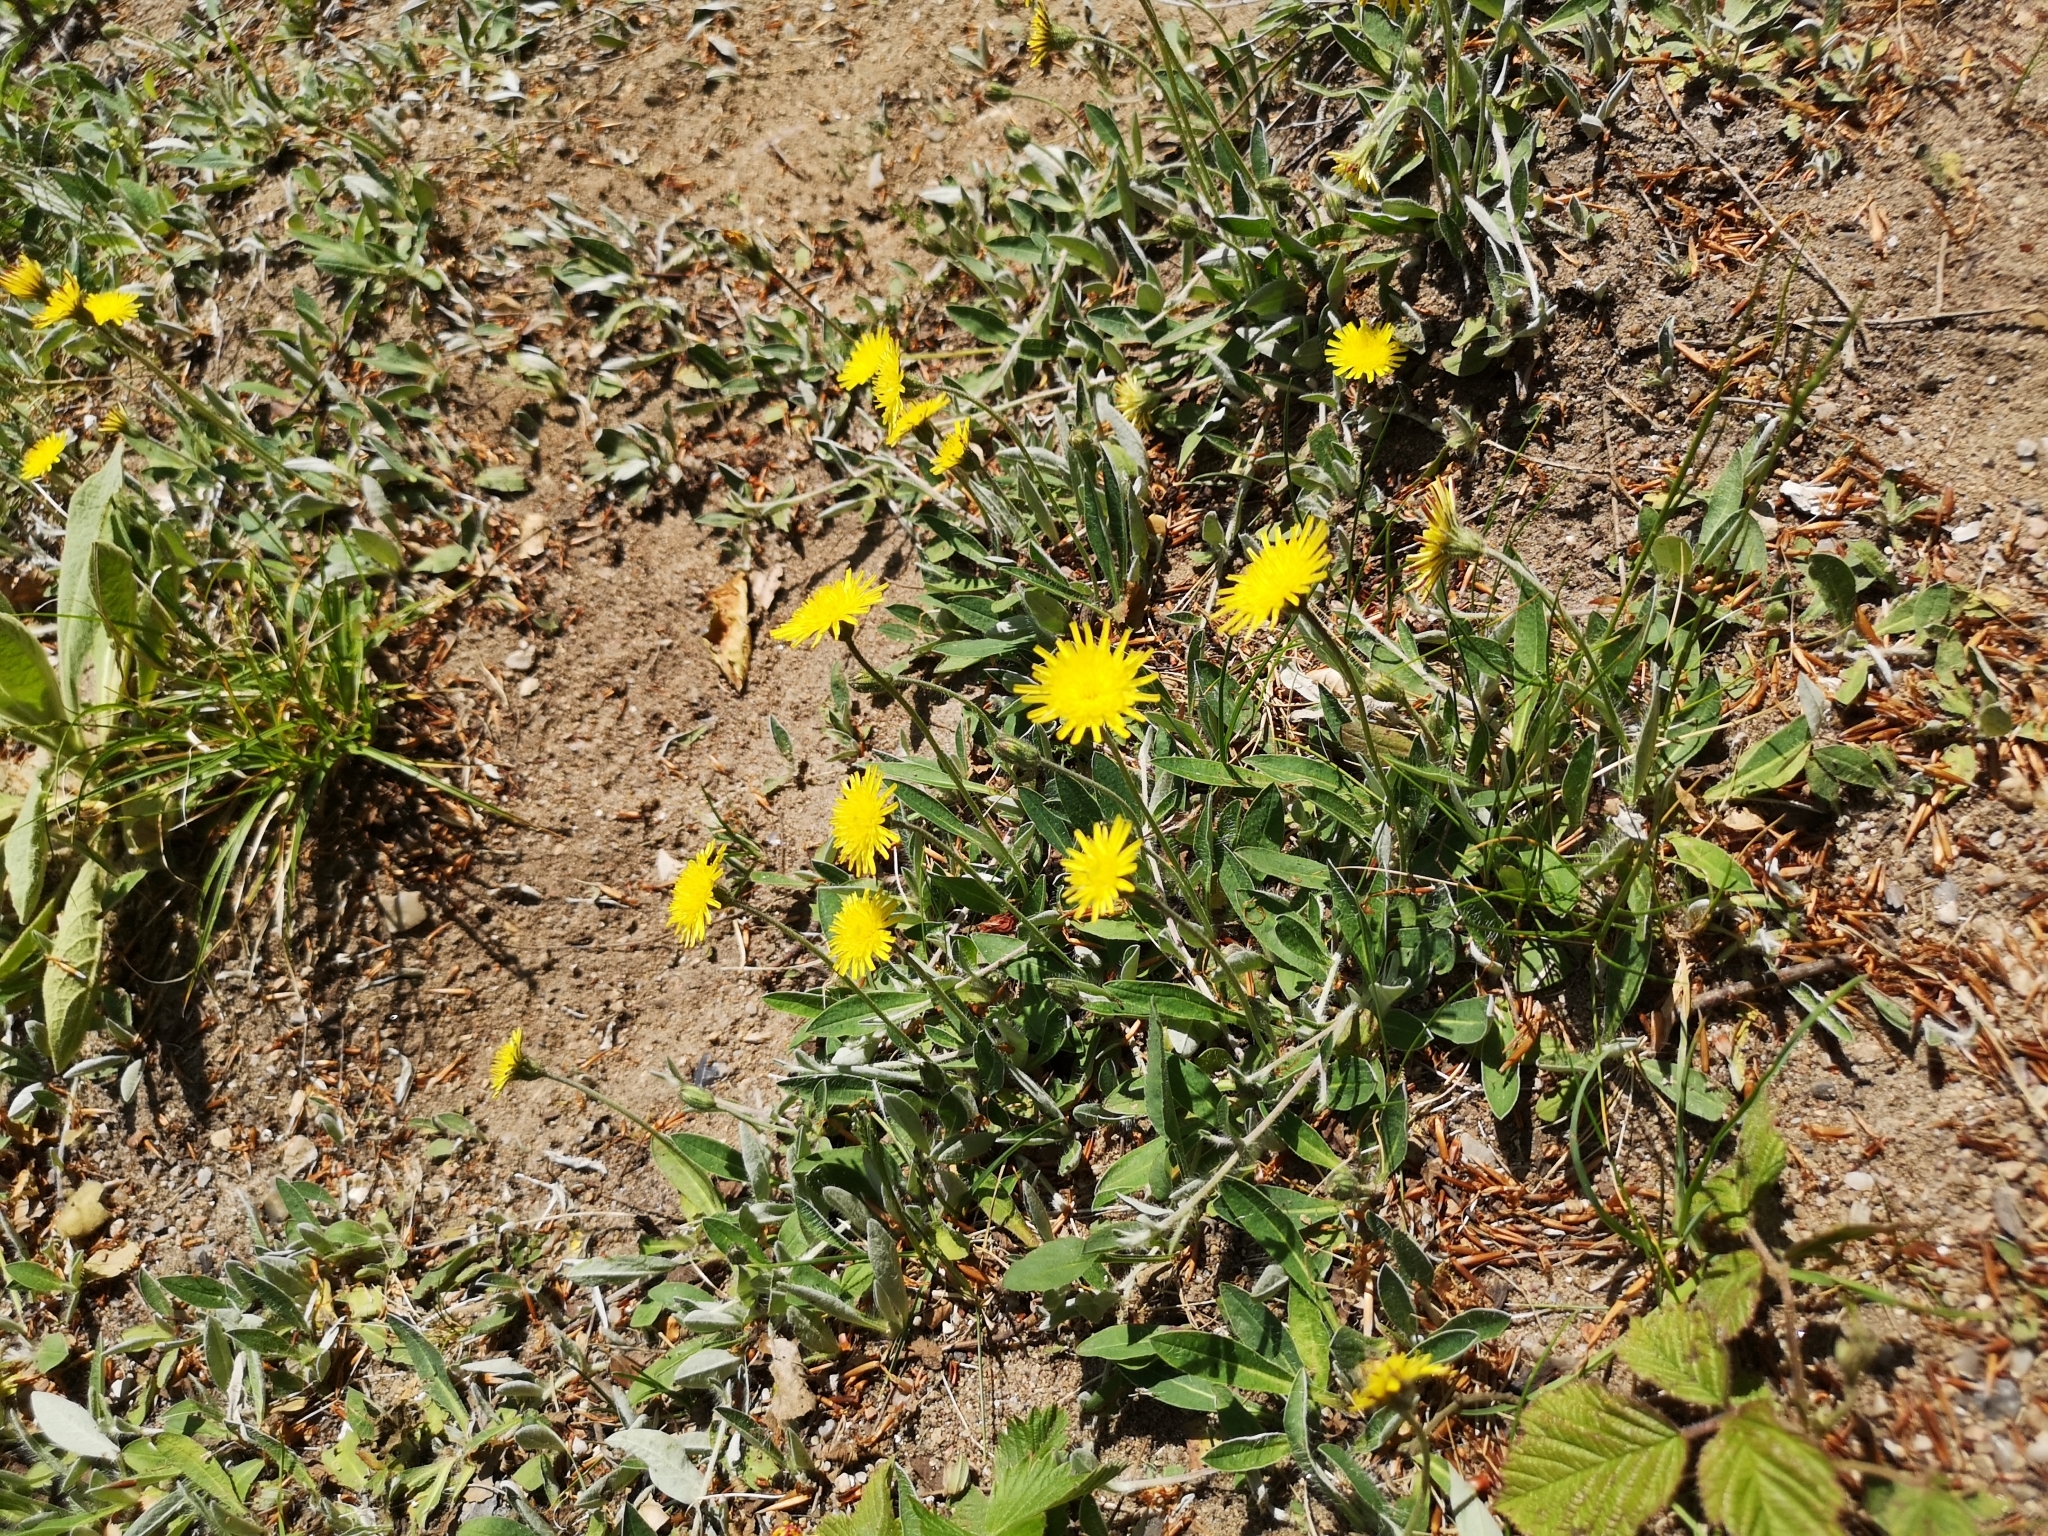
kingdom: Plantae
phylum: Tracheophyta
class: Magnoliopsida
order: Asterales
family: Asteraceae
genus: Pilosella
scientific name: Pilosella officinarum
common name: Mouse-ear hawkweed
